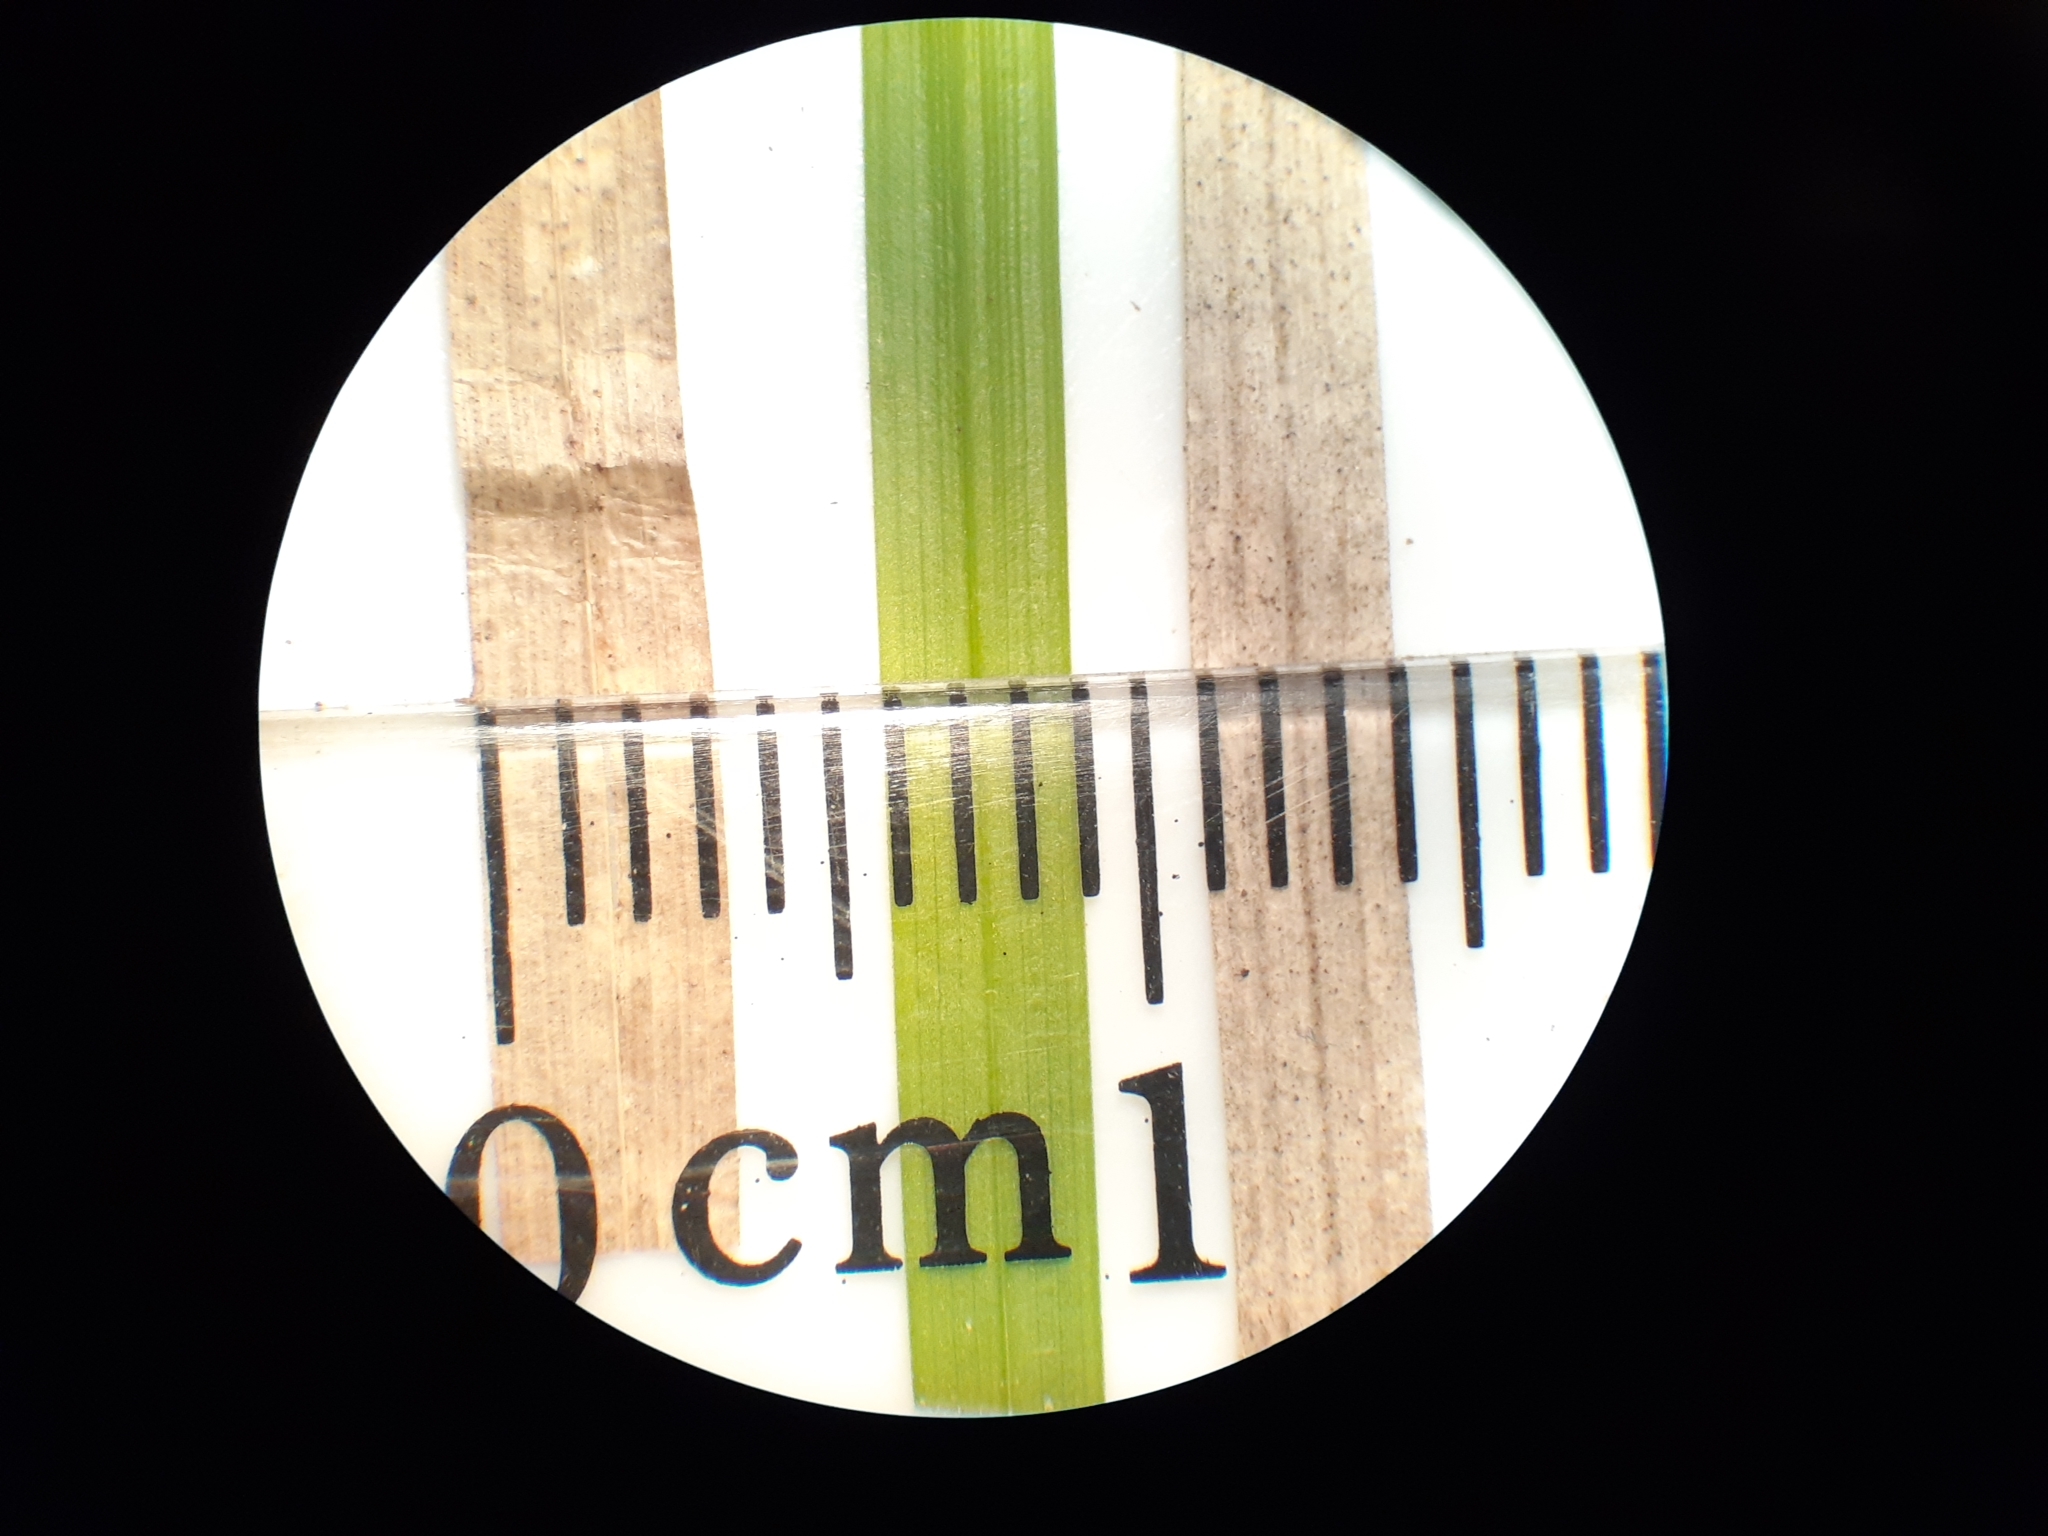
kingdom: Plantae
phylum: Tracheophyta
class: Liliopsida
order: Poales
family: Cyperaceae
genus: Carex
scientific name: Carex communis
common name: Colonial oak sedge
